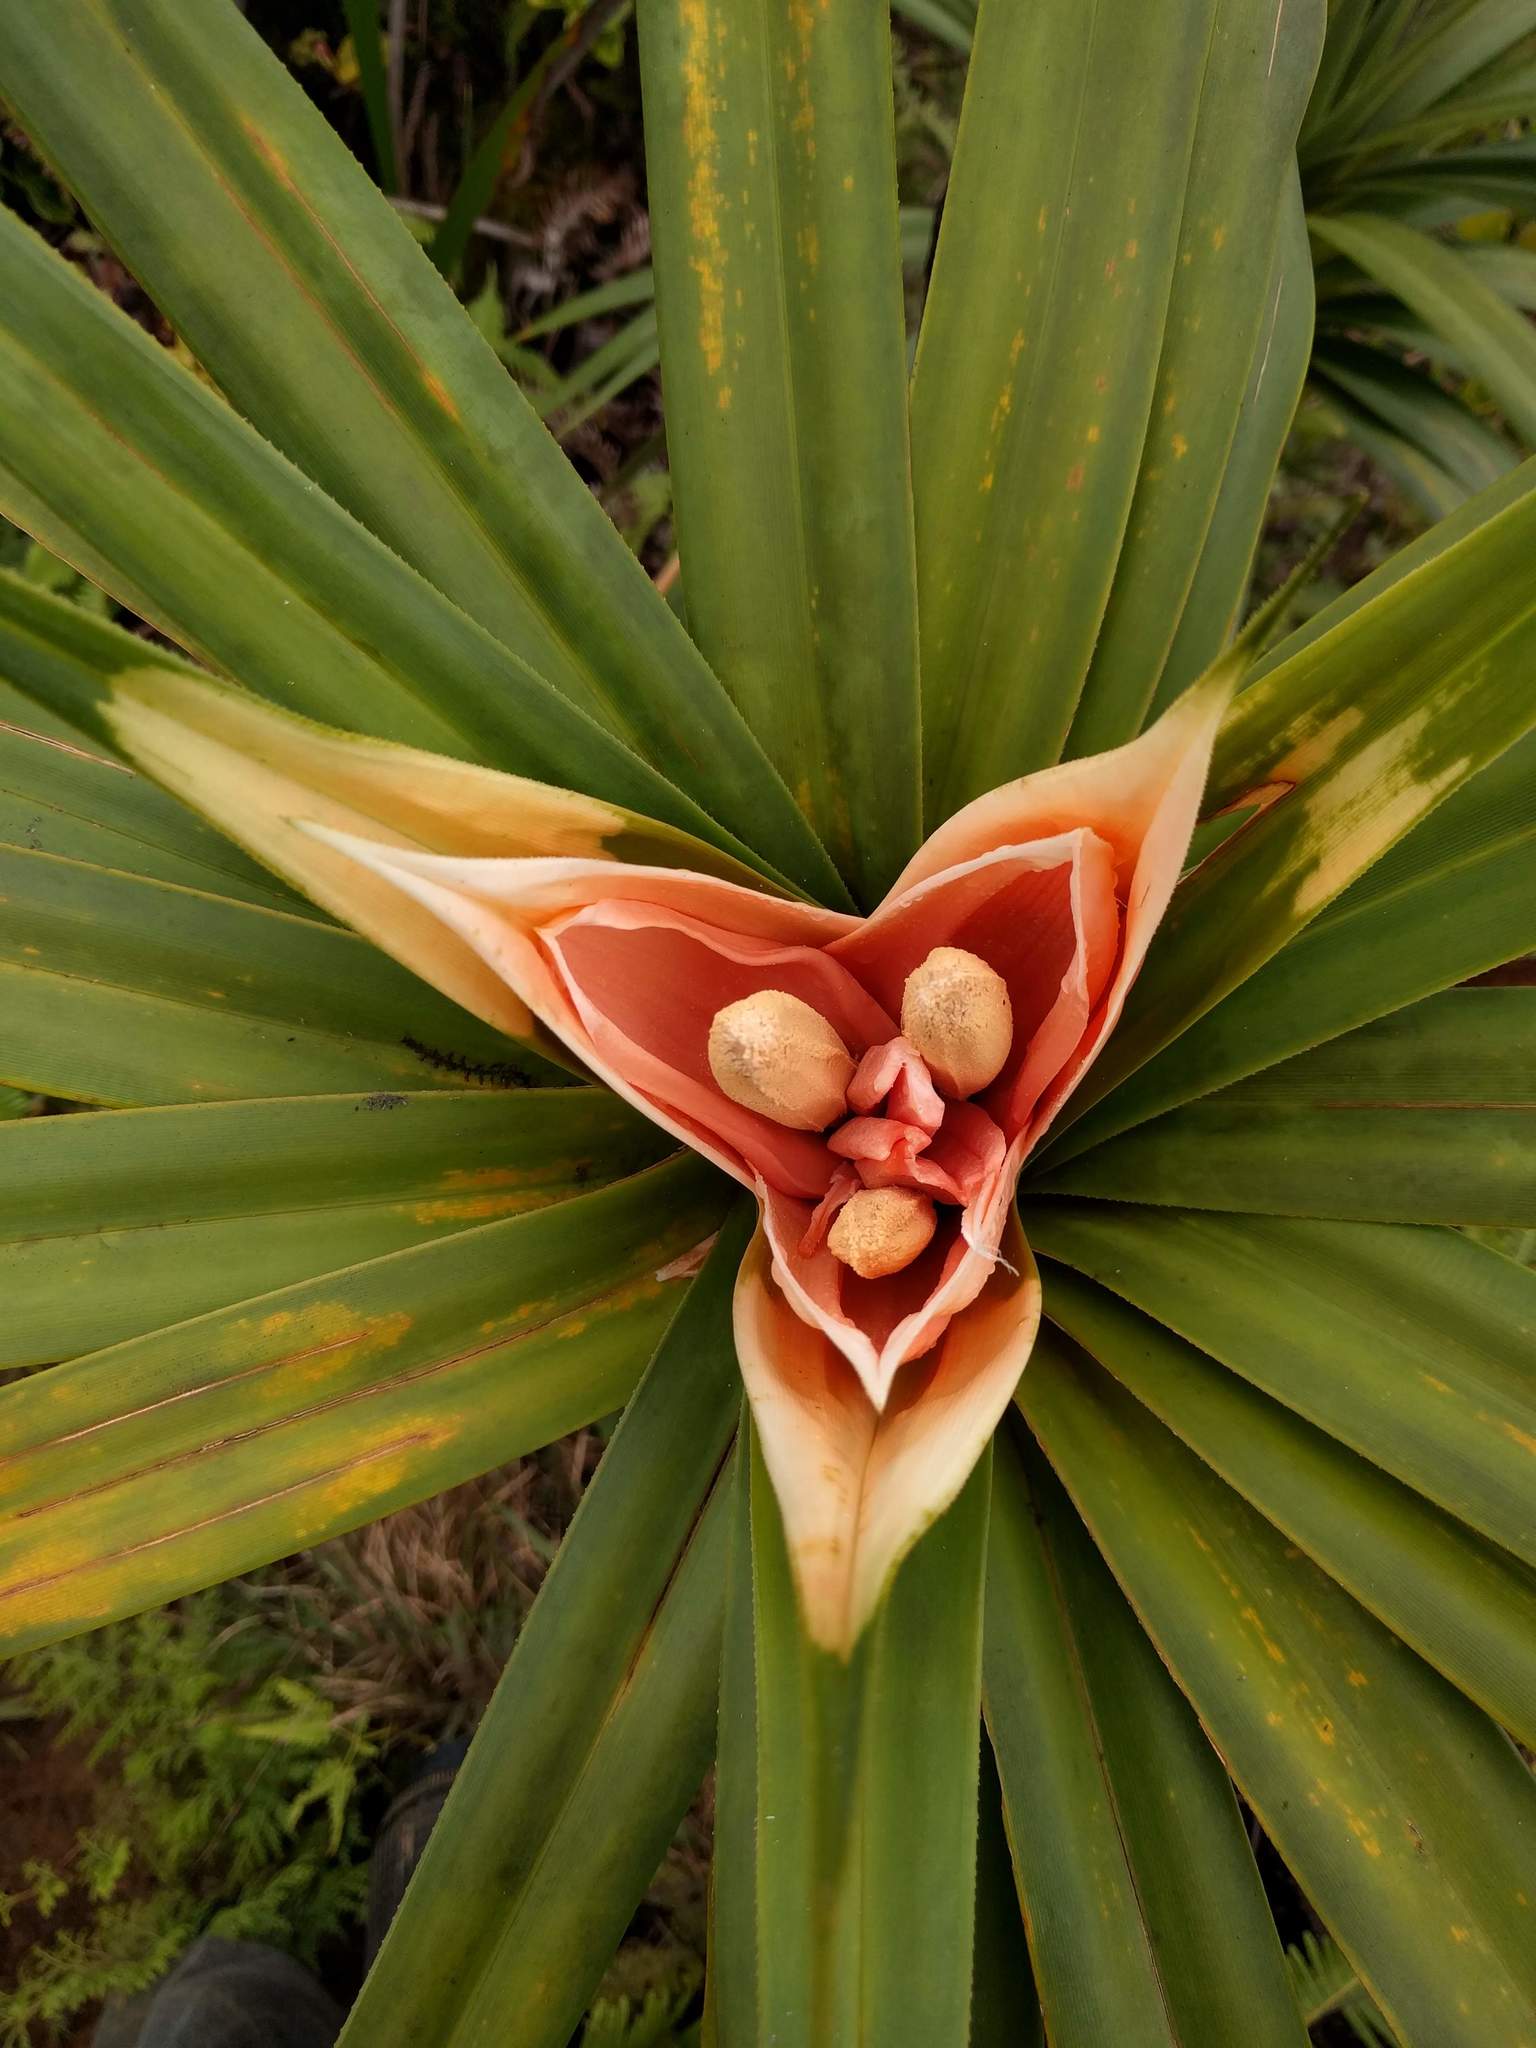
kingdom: Plantae
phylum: Tracheophyta
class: Liliopsida
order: Pandanales
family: Pandanaceae
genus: Freycinetia
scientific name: Freycinetia arborea
